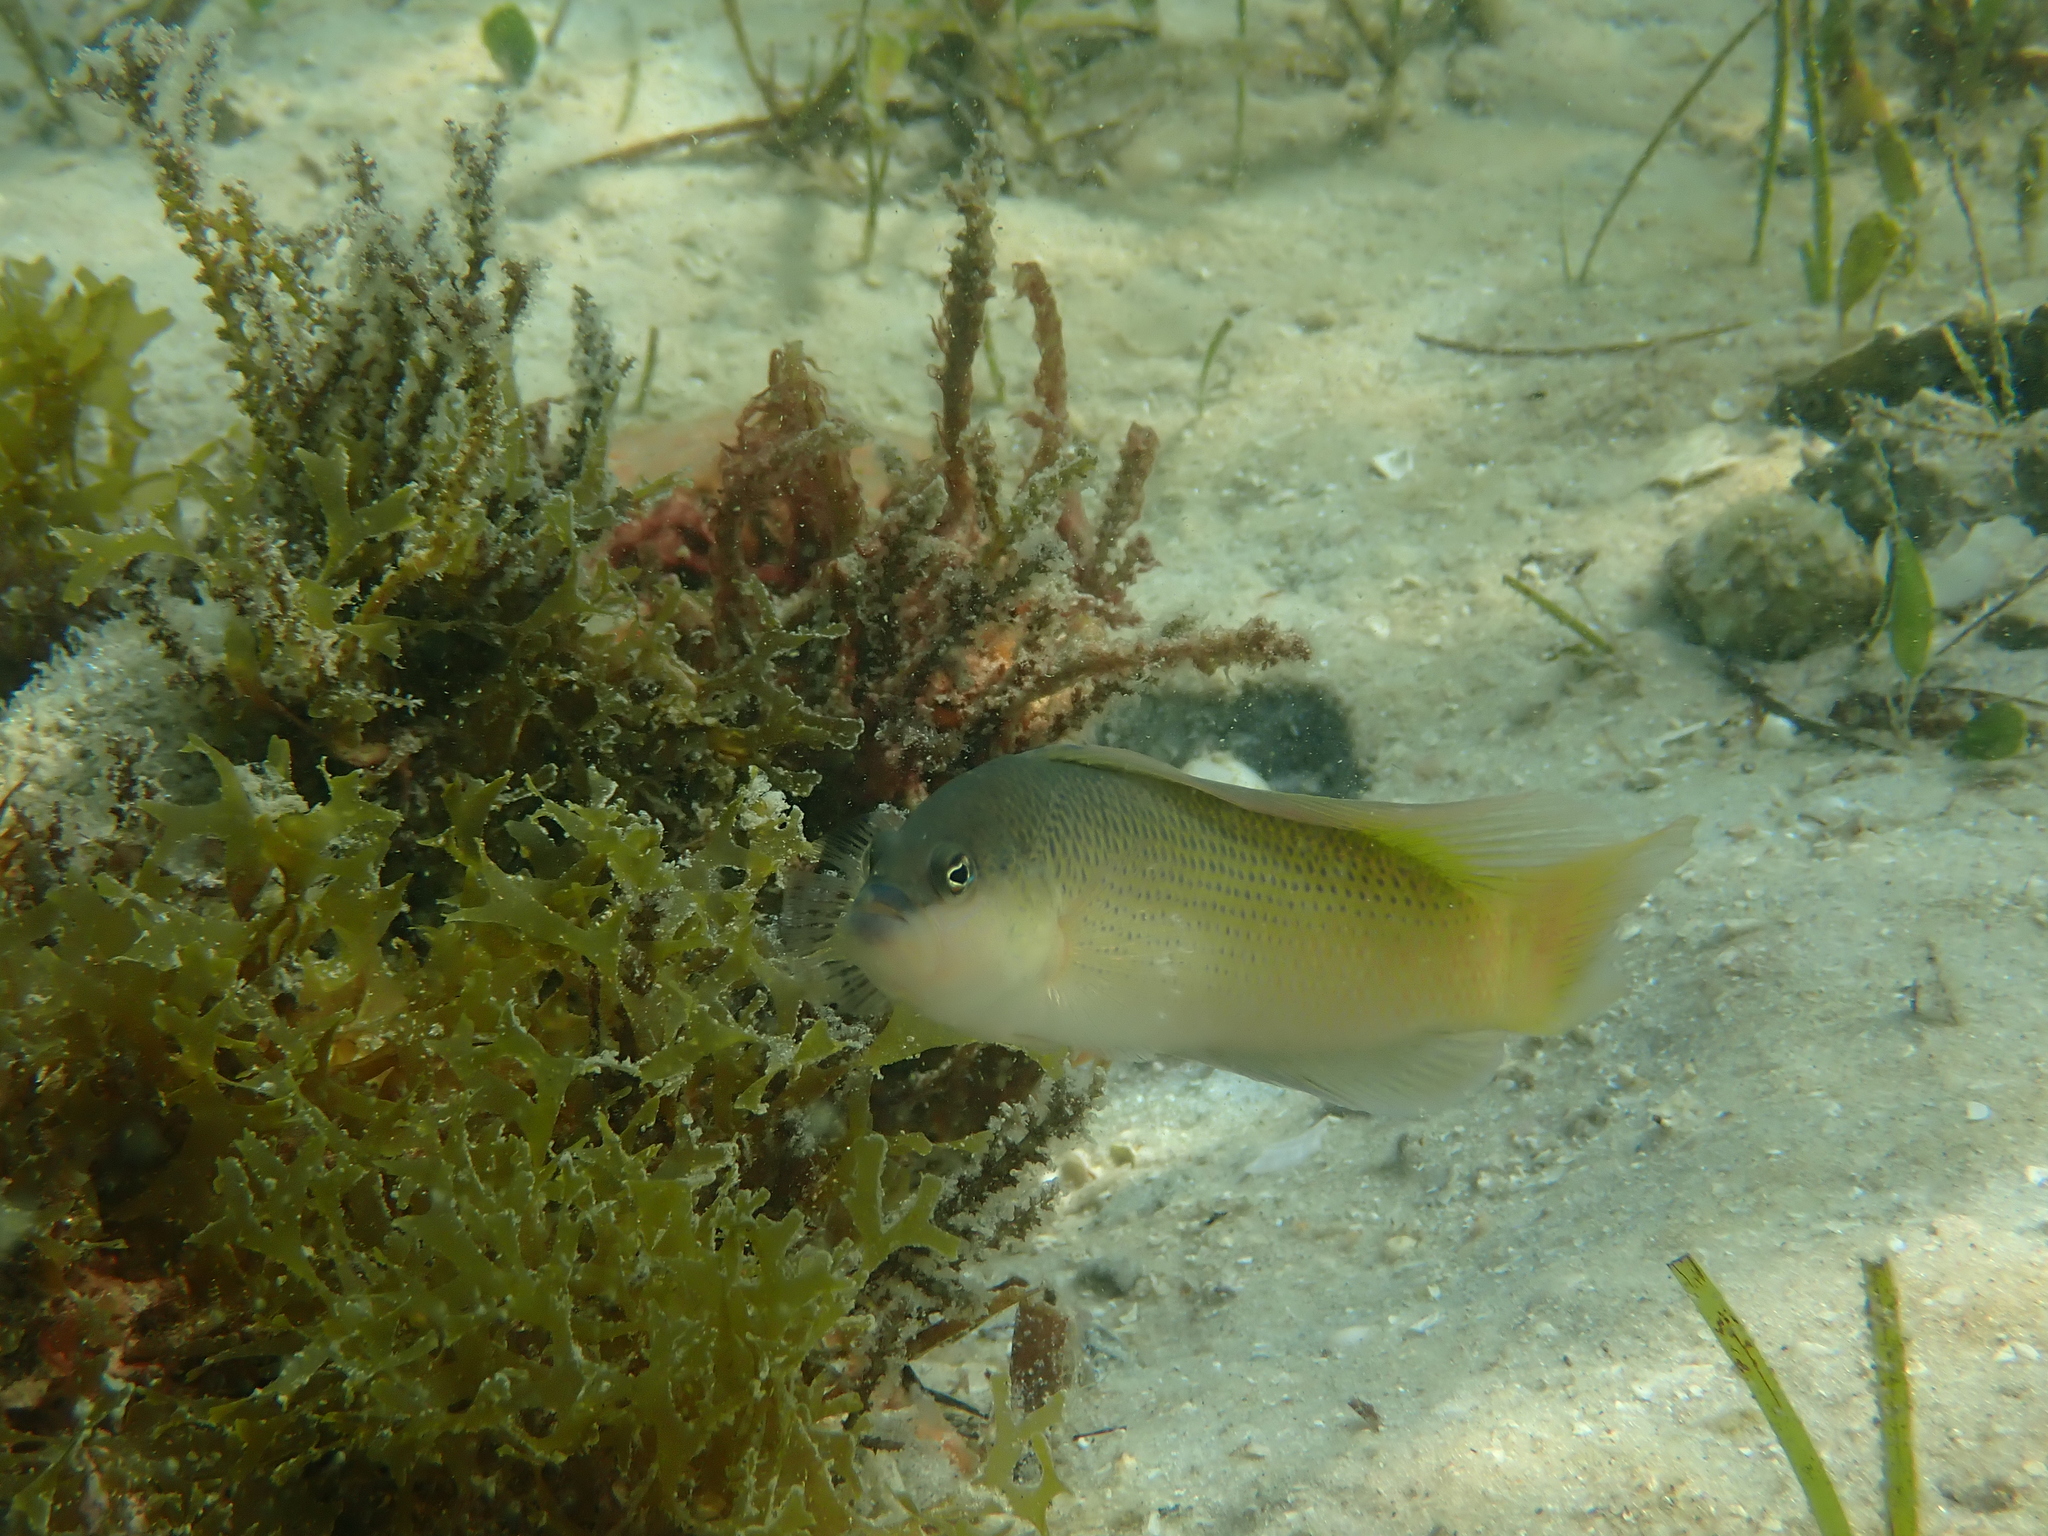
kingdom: Animalia
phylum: Chordata
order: Perciformes
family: Pseudochromidae
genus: Pseudochromis
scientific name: Pseudochromis natalensis
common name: Natal dottyback
